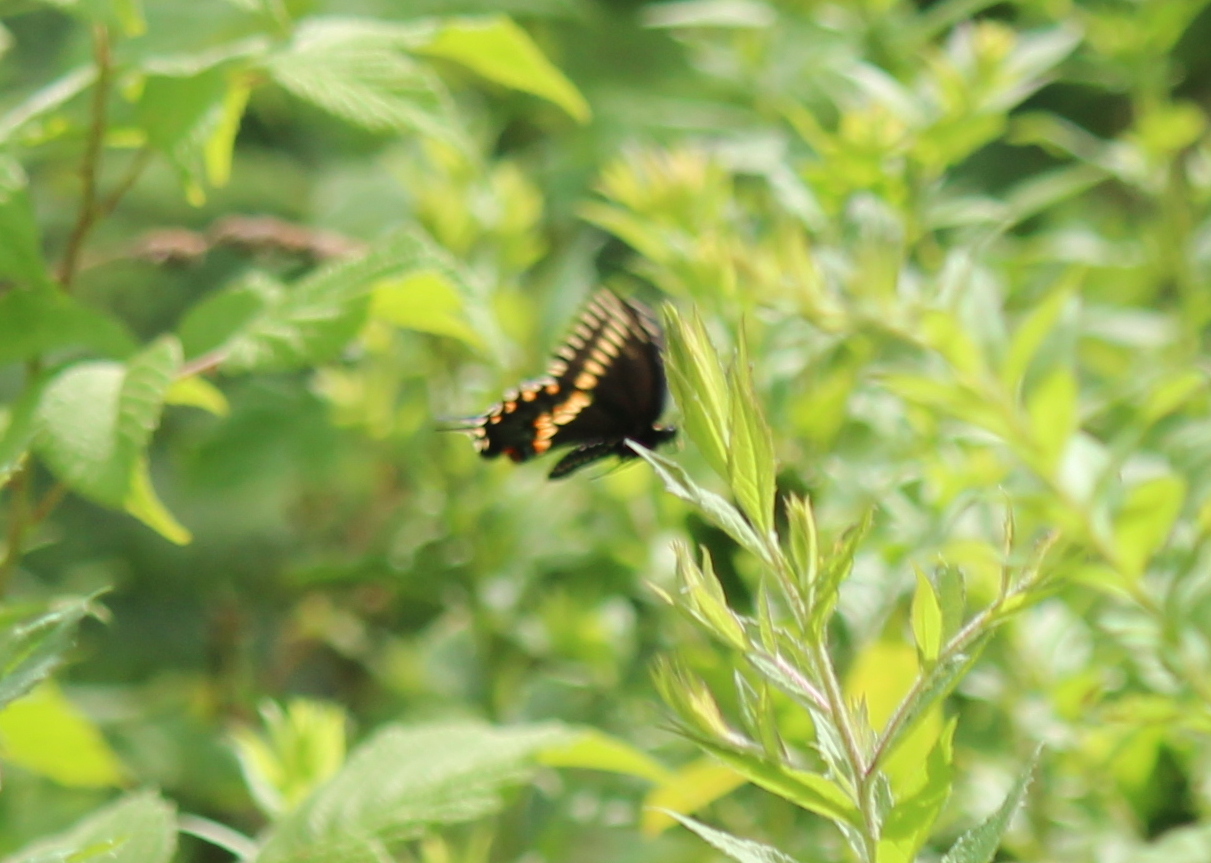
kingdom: Animalia
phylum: Arthropoda
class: Insecta
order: Lepidoptera
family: Papilionidae
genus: Papilio
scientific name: Papilio polyxenes
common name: Black swallowtail
